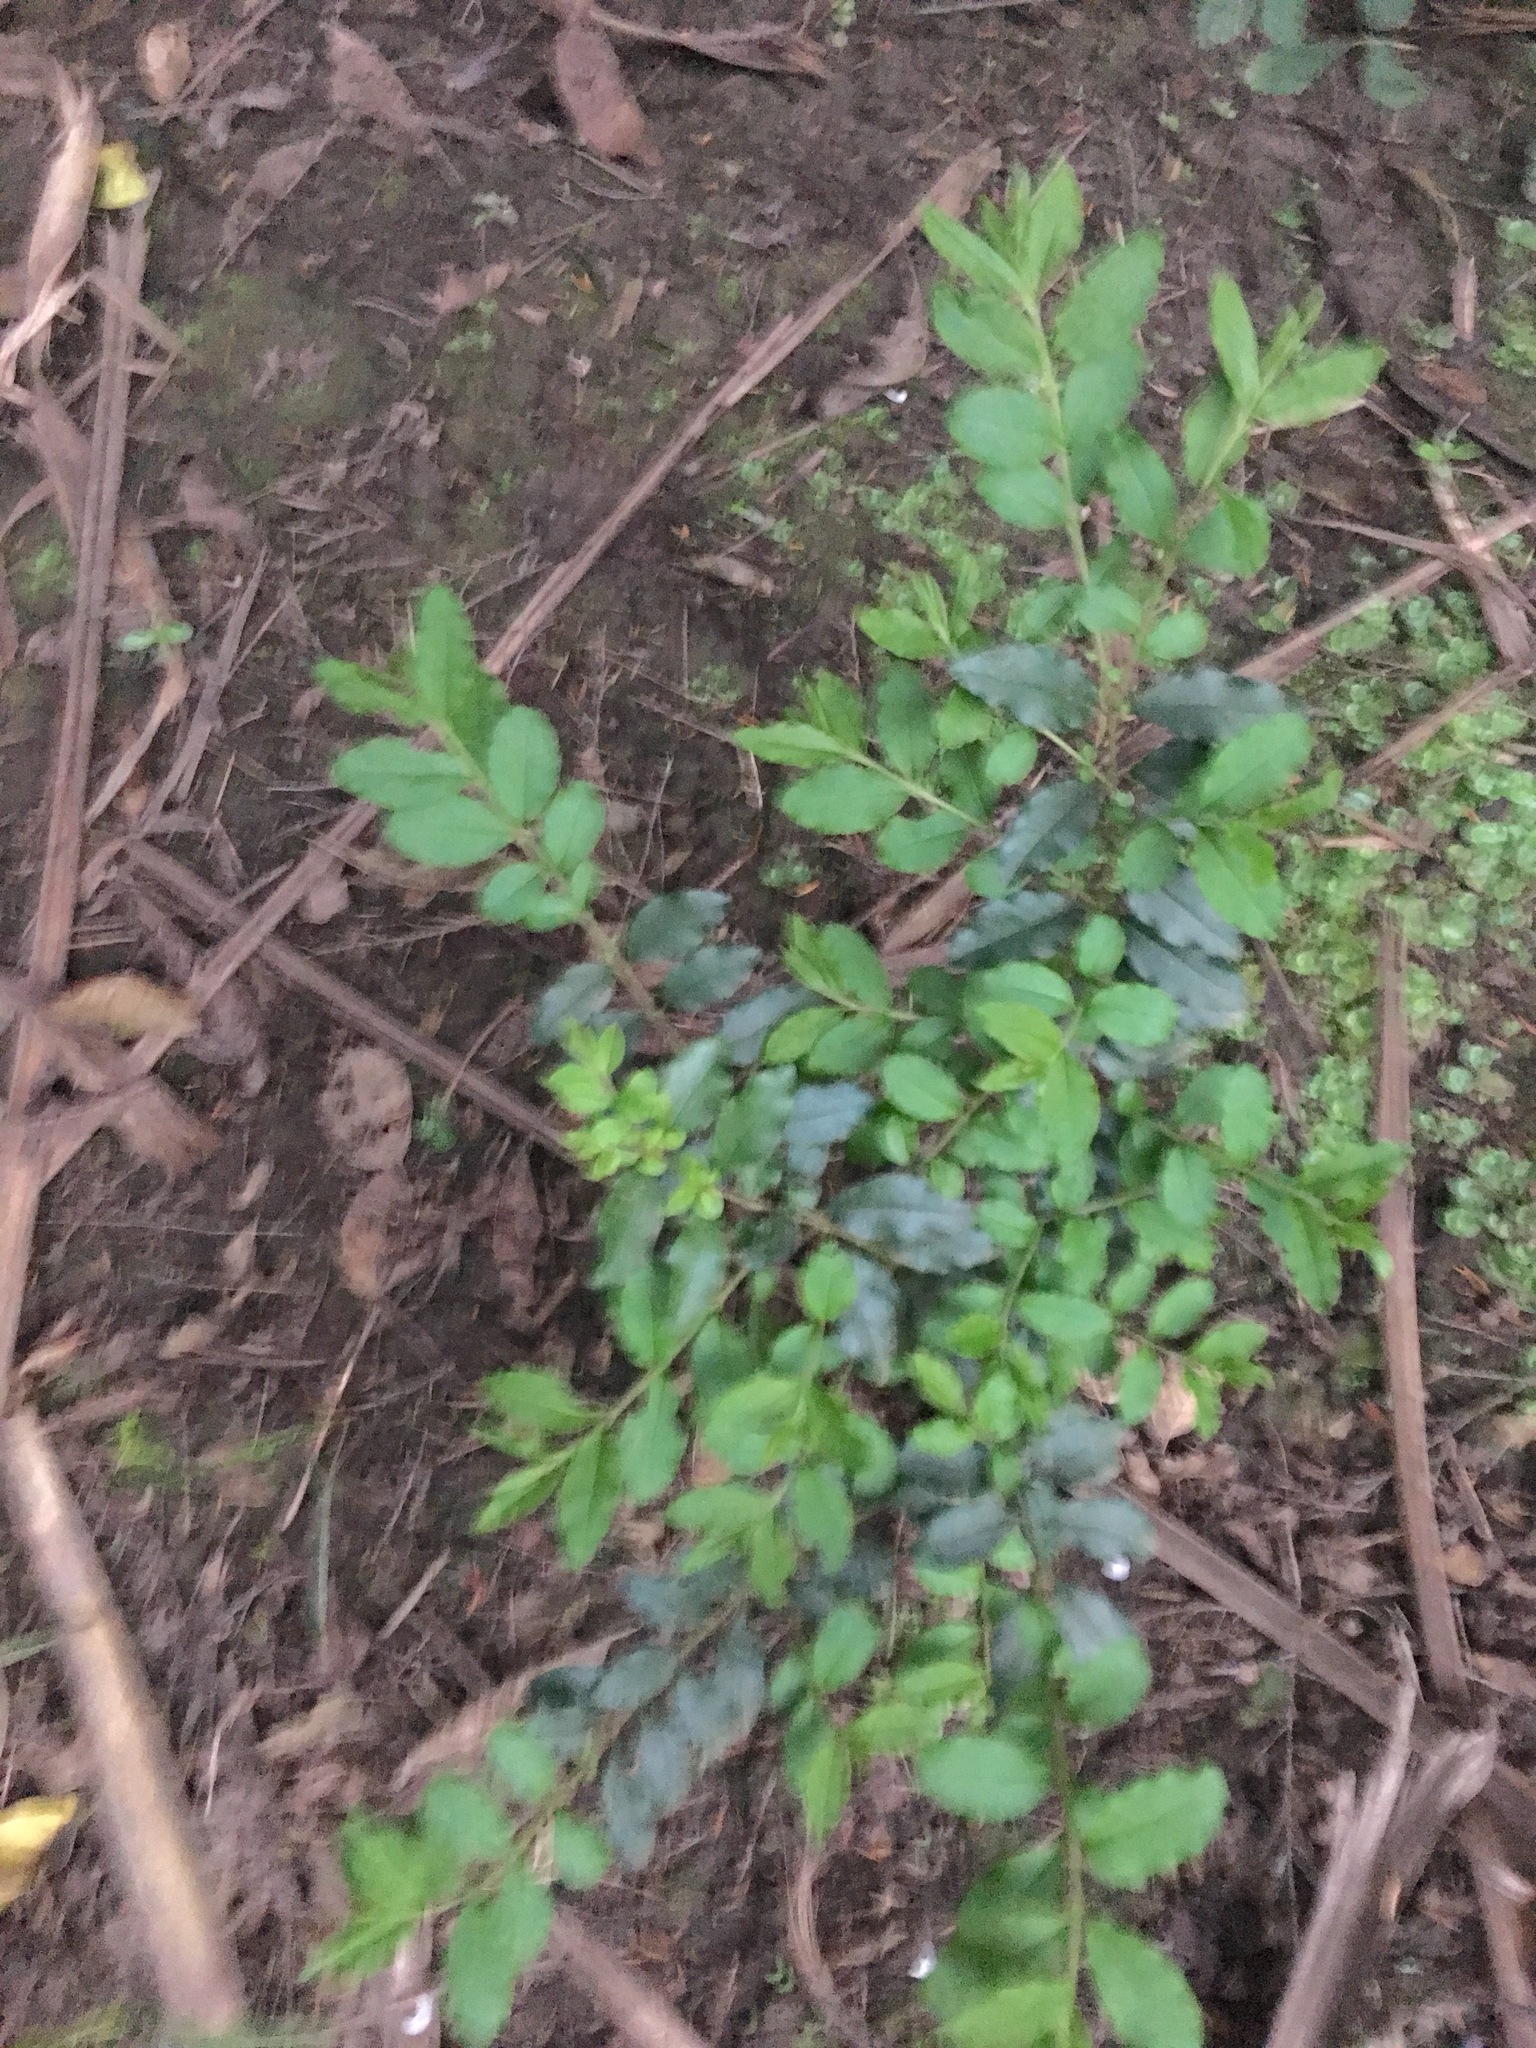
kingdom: Plantae
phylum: Tracheophyta
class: Magnoliopsida
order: Lamiales
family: Oleaceae
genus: Ligustrum
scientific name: Ligustrum sinense
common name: Chinese privet
